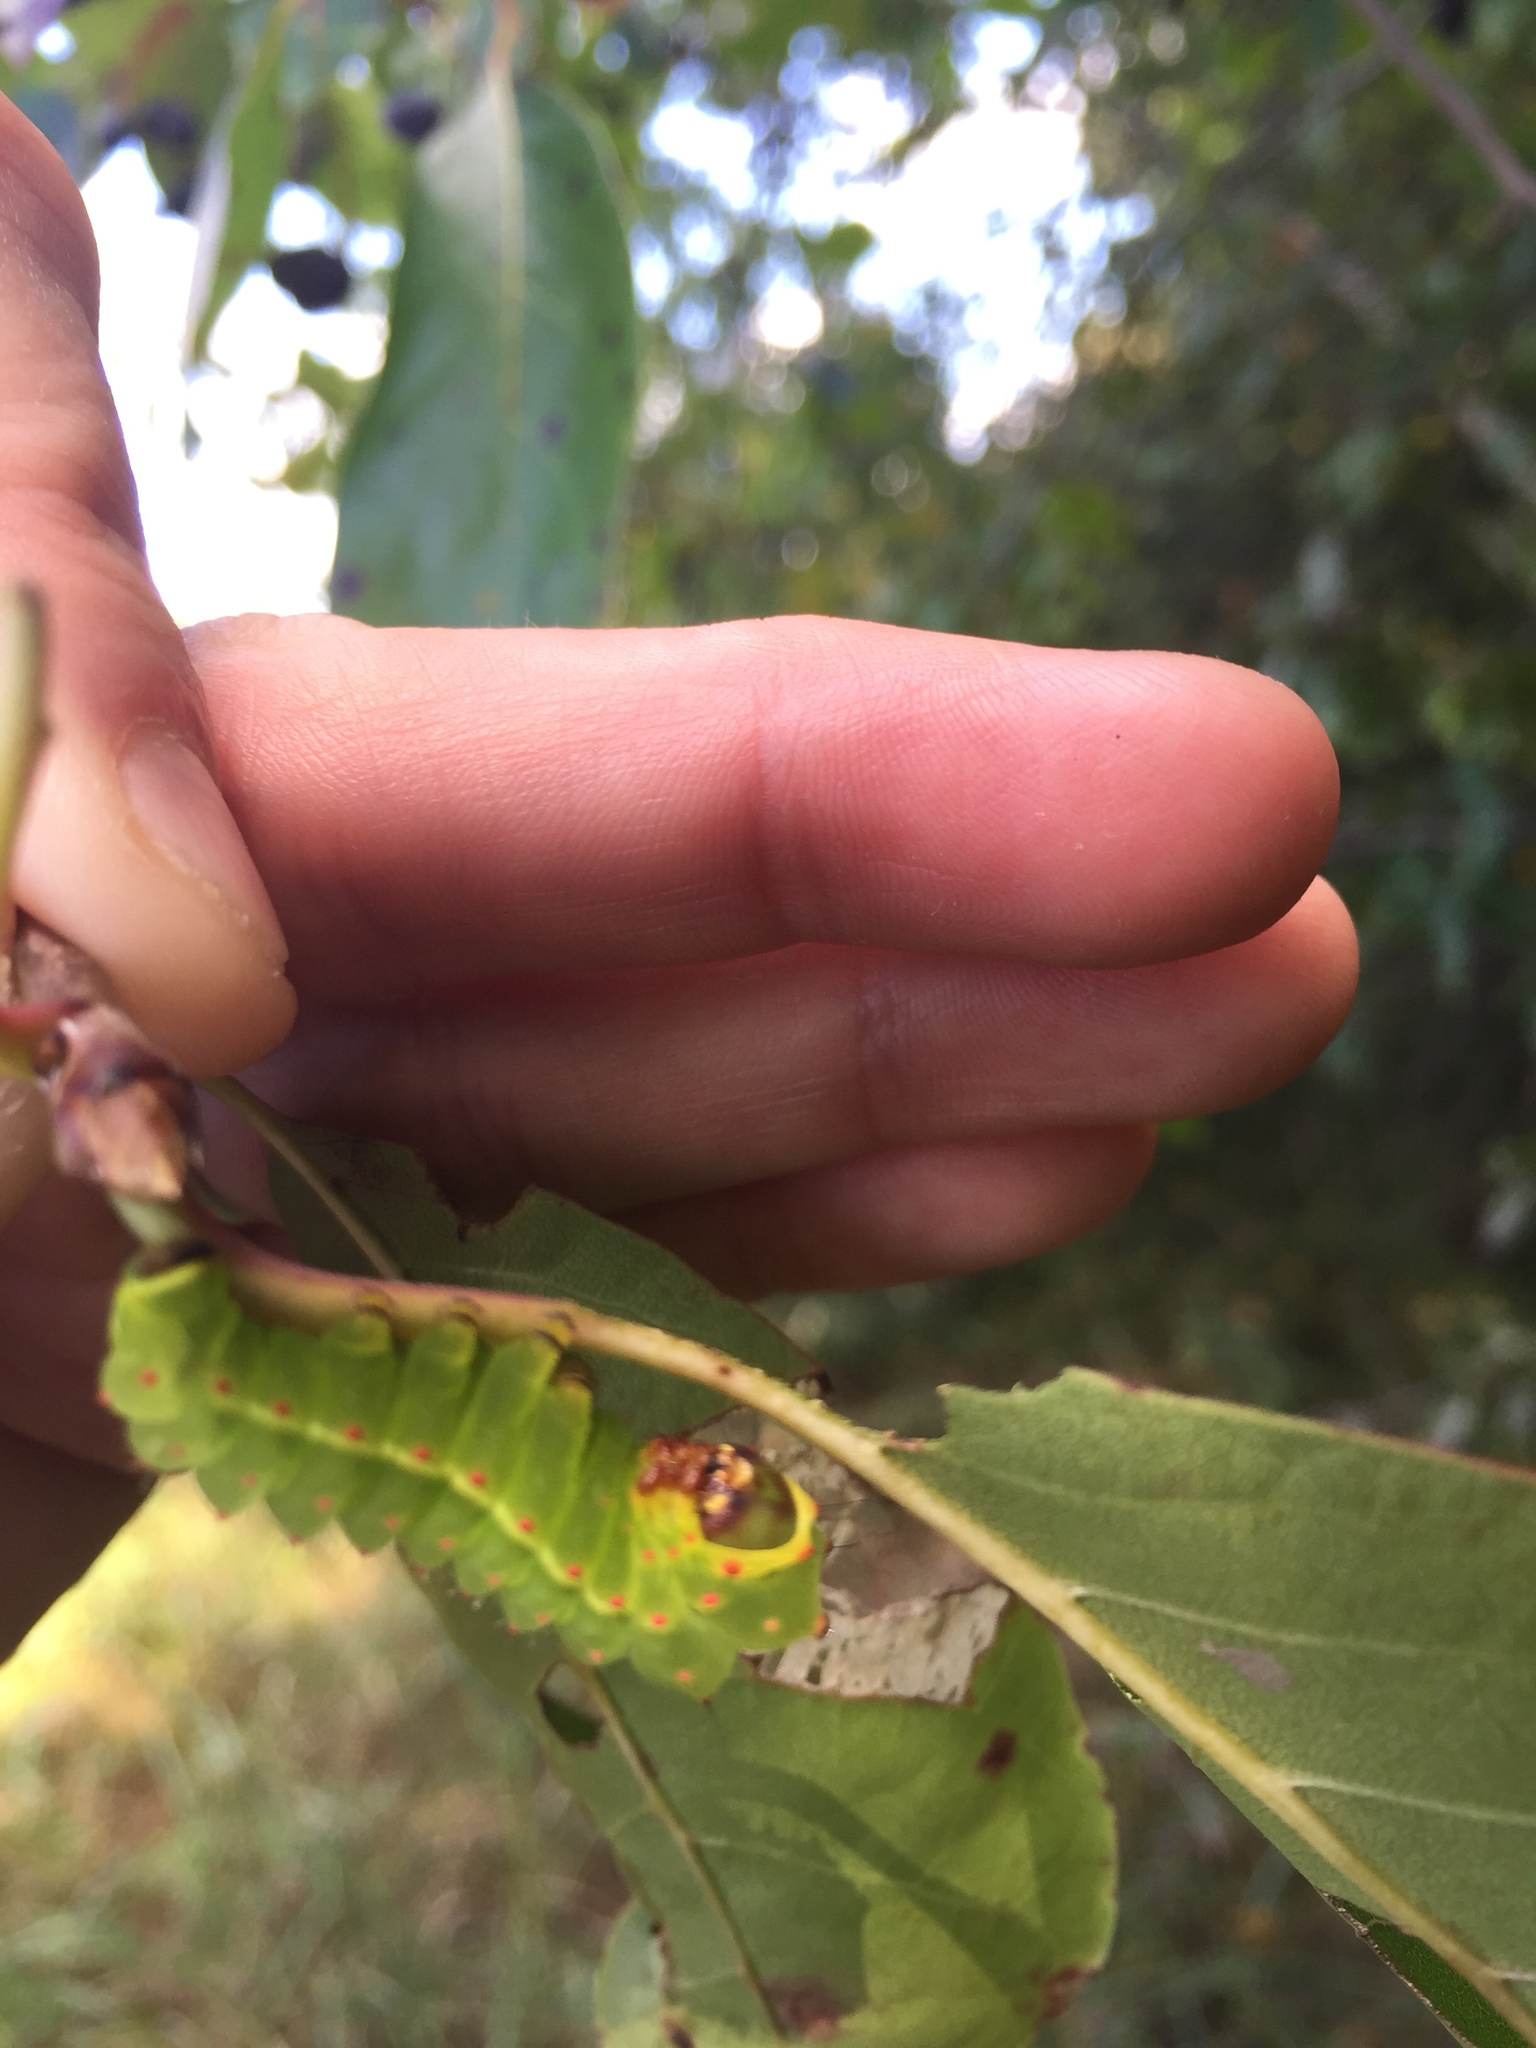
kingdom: Animalia
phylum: Arthropoda
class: Insecta
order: Lepidoptera
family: Saturniidae
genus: Actias
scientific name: Actias luna
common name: Luna moth
